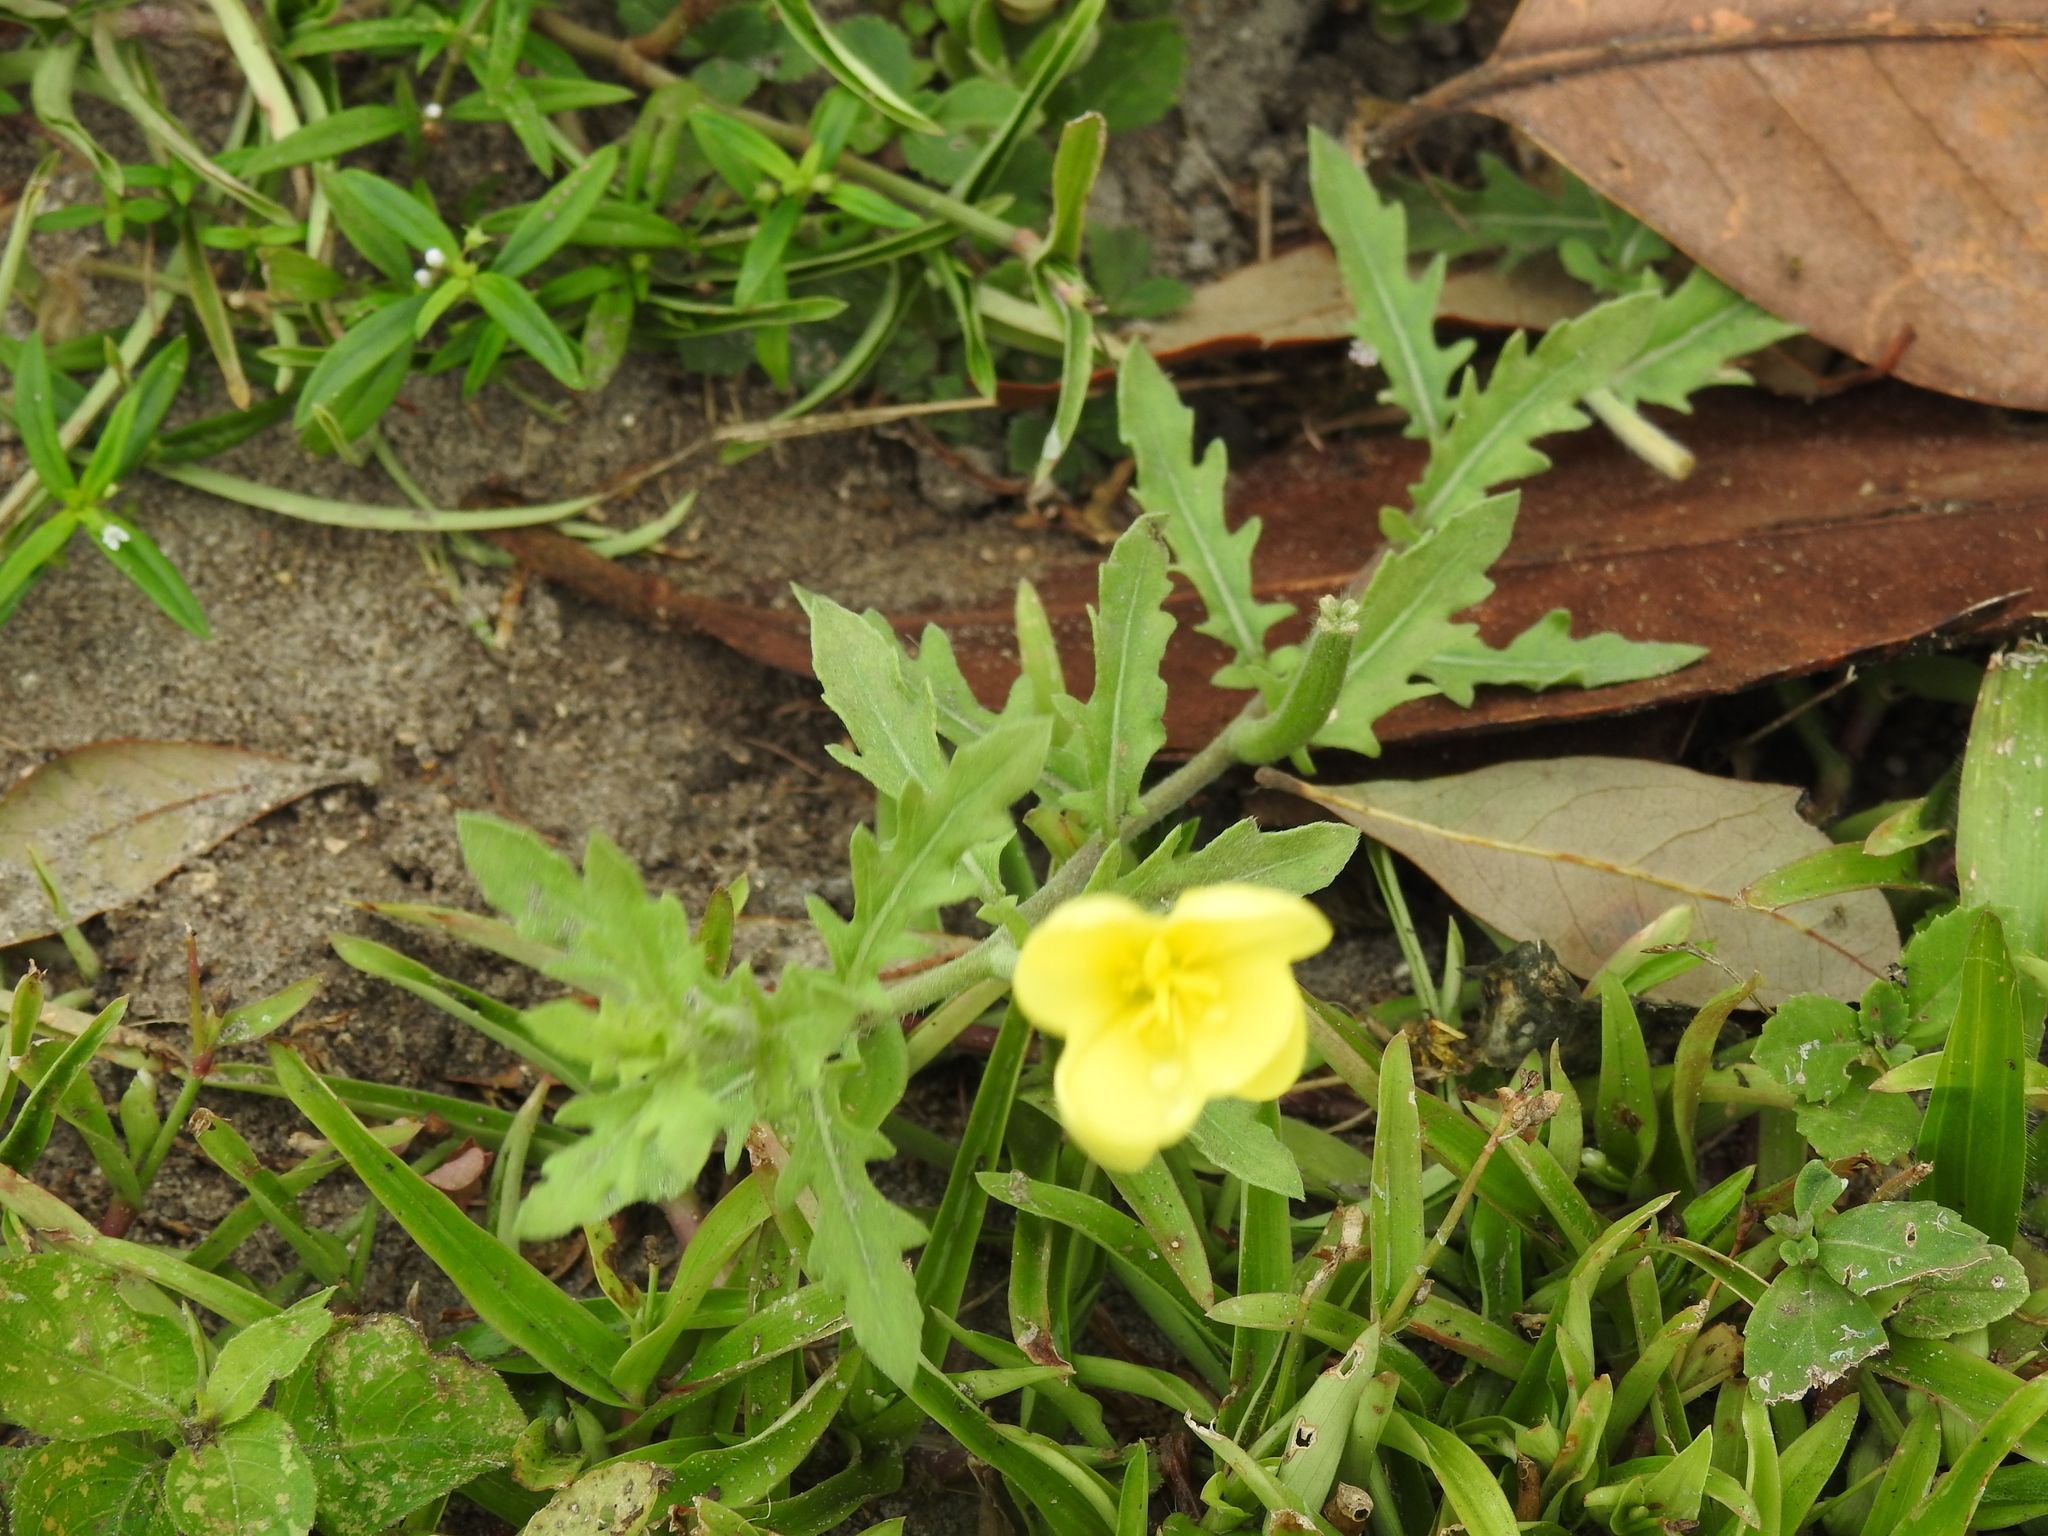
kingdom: Plantae
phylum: Tracheophyta
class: Magnoliopsida
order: Myrtales
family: Onagraceae
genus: Oenothera
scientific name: Oenothera laciniata
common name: Cut-leaved evening-primrose
